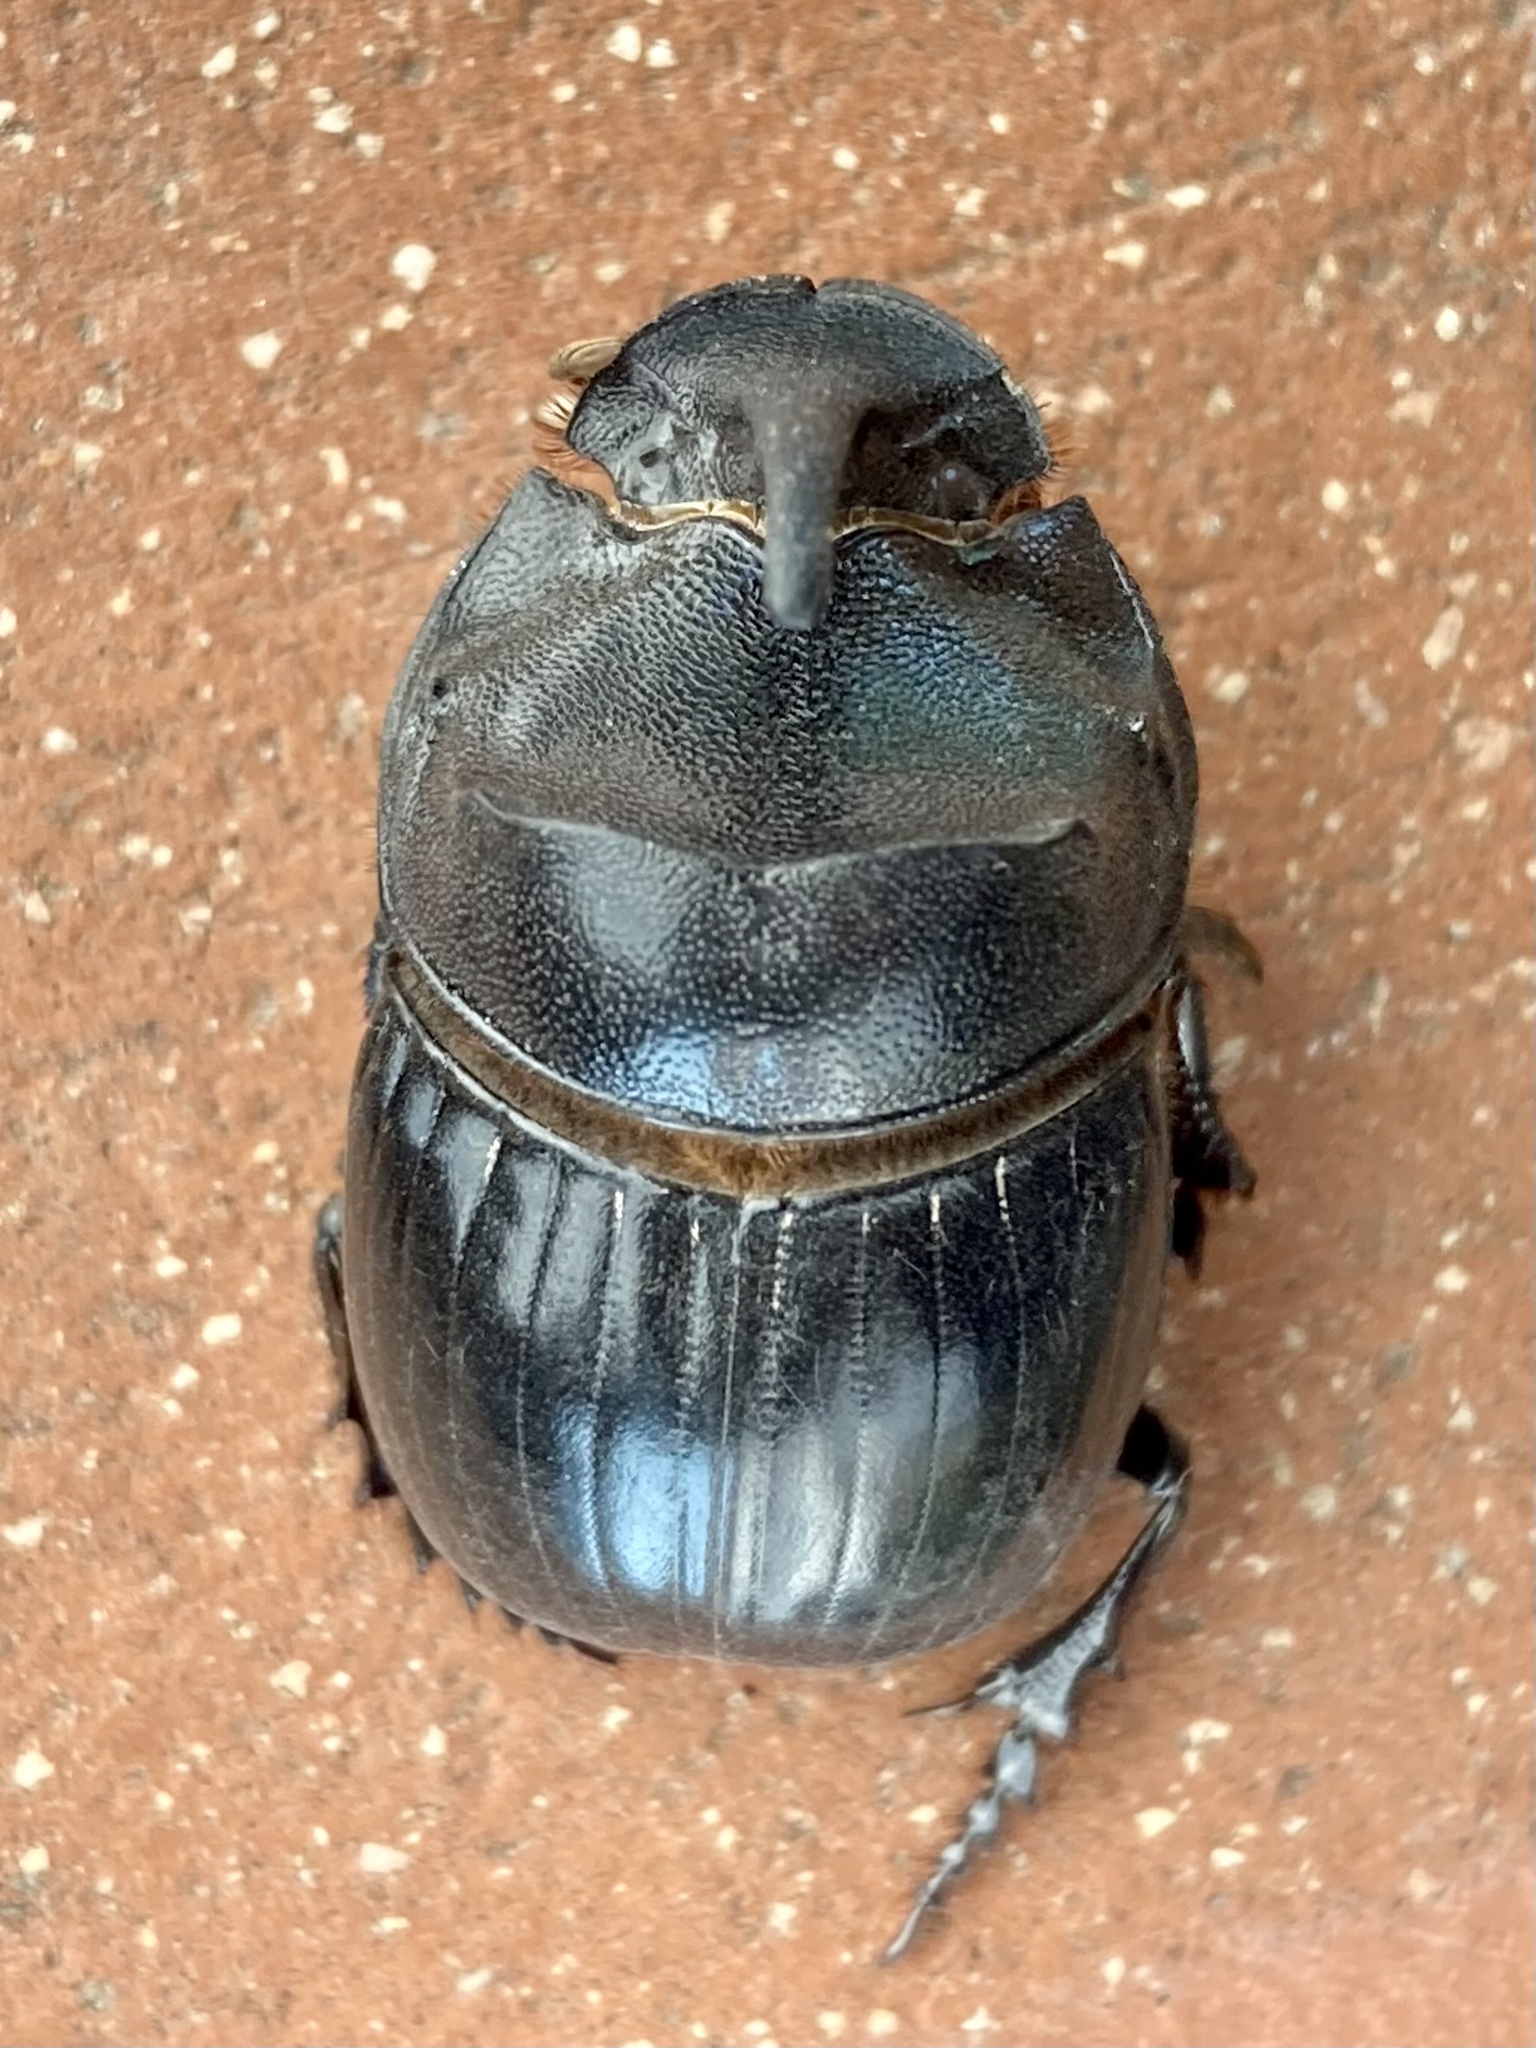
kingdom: Animalia
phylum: Arthropoda
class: Insecta
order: Coleoptera
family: Scarabaeidae
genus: Copris
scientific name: Copris hispanus
